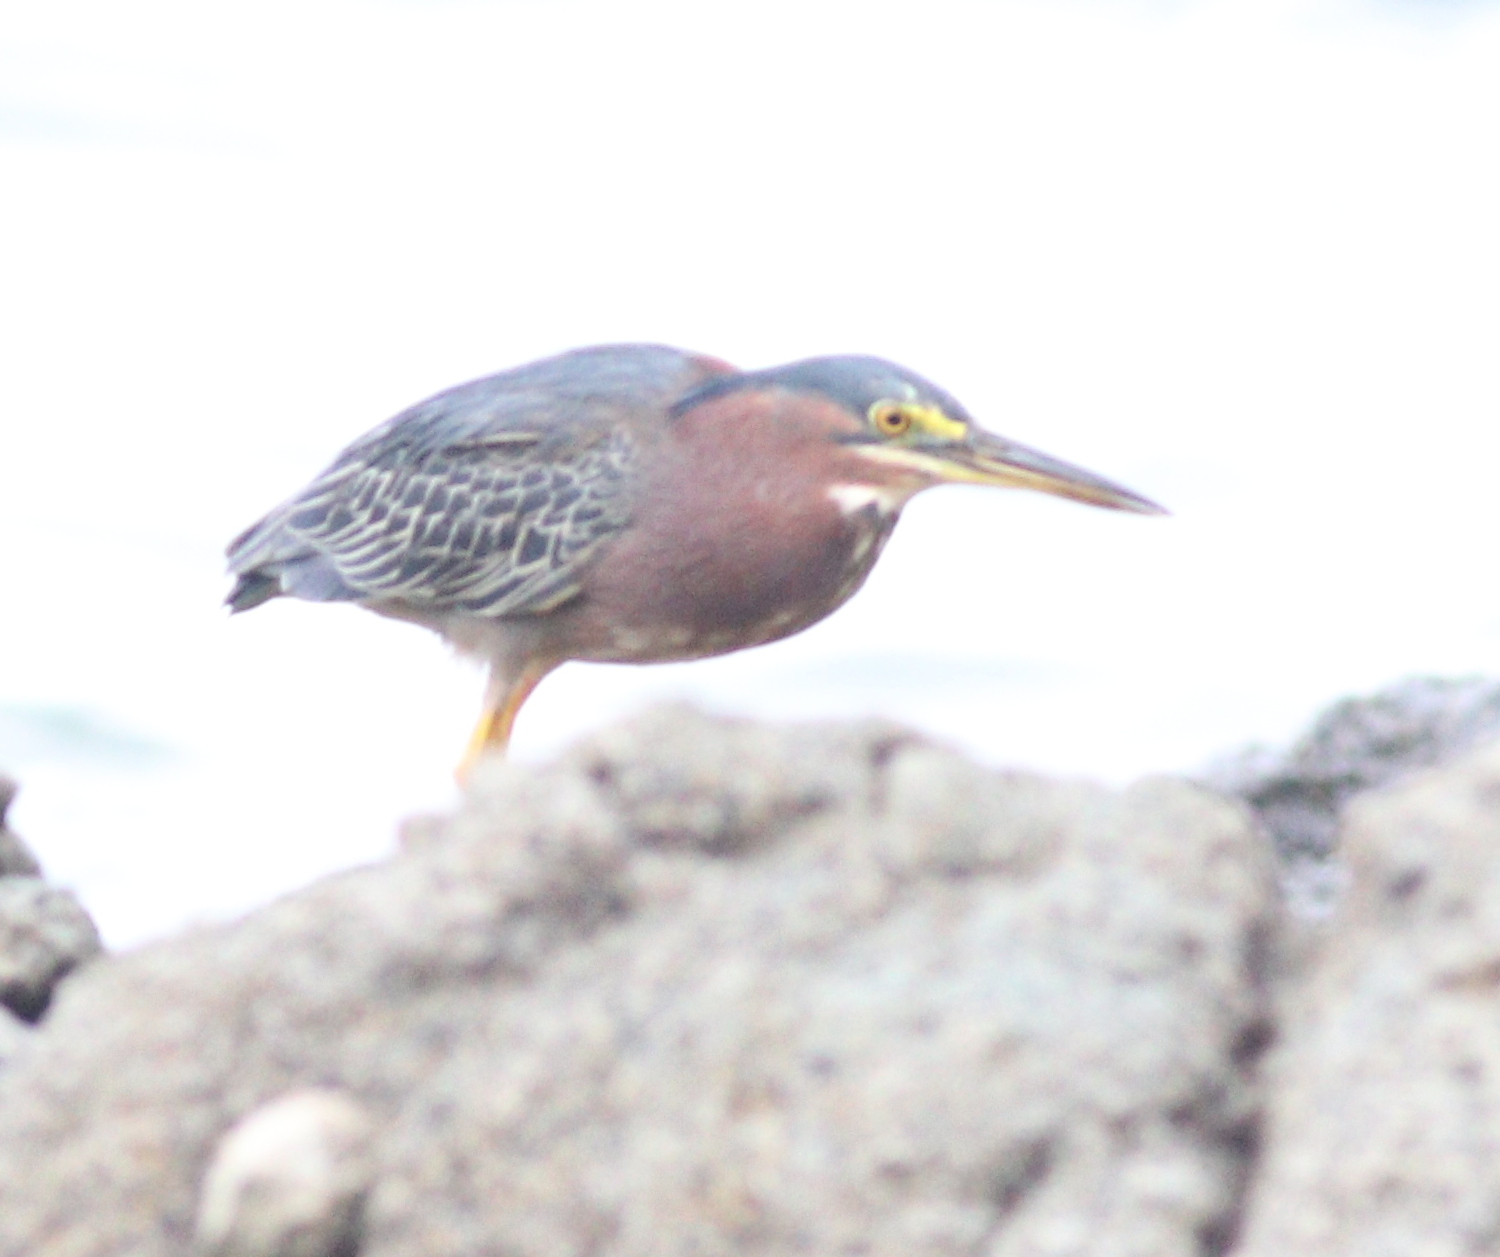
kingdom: Animalia
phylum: Chordata
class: Aves
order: Pelecaniformes
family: Ardeidae
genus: Butorides
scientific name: Butorides virescens
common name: Green heron
